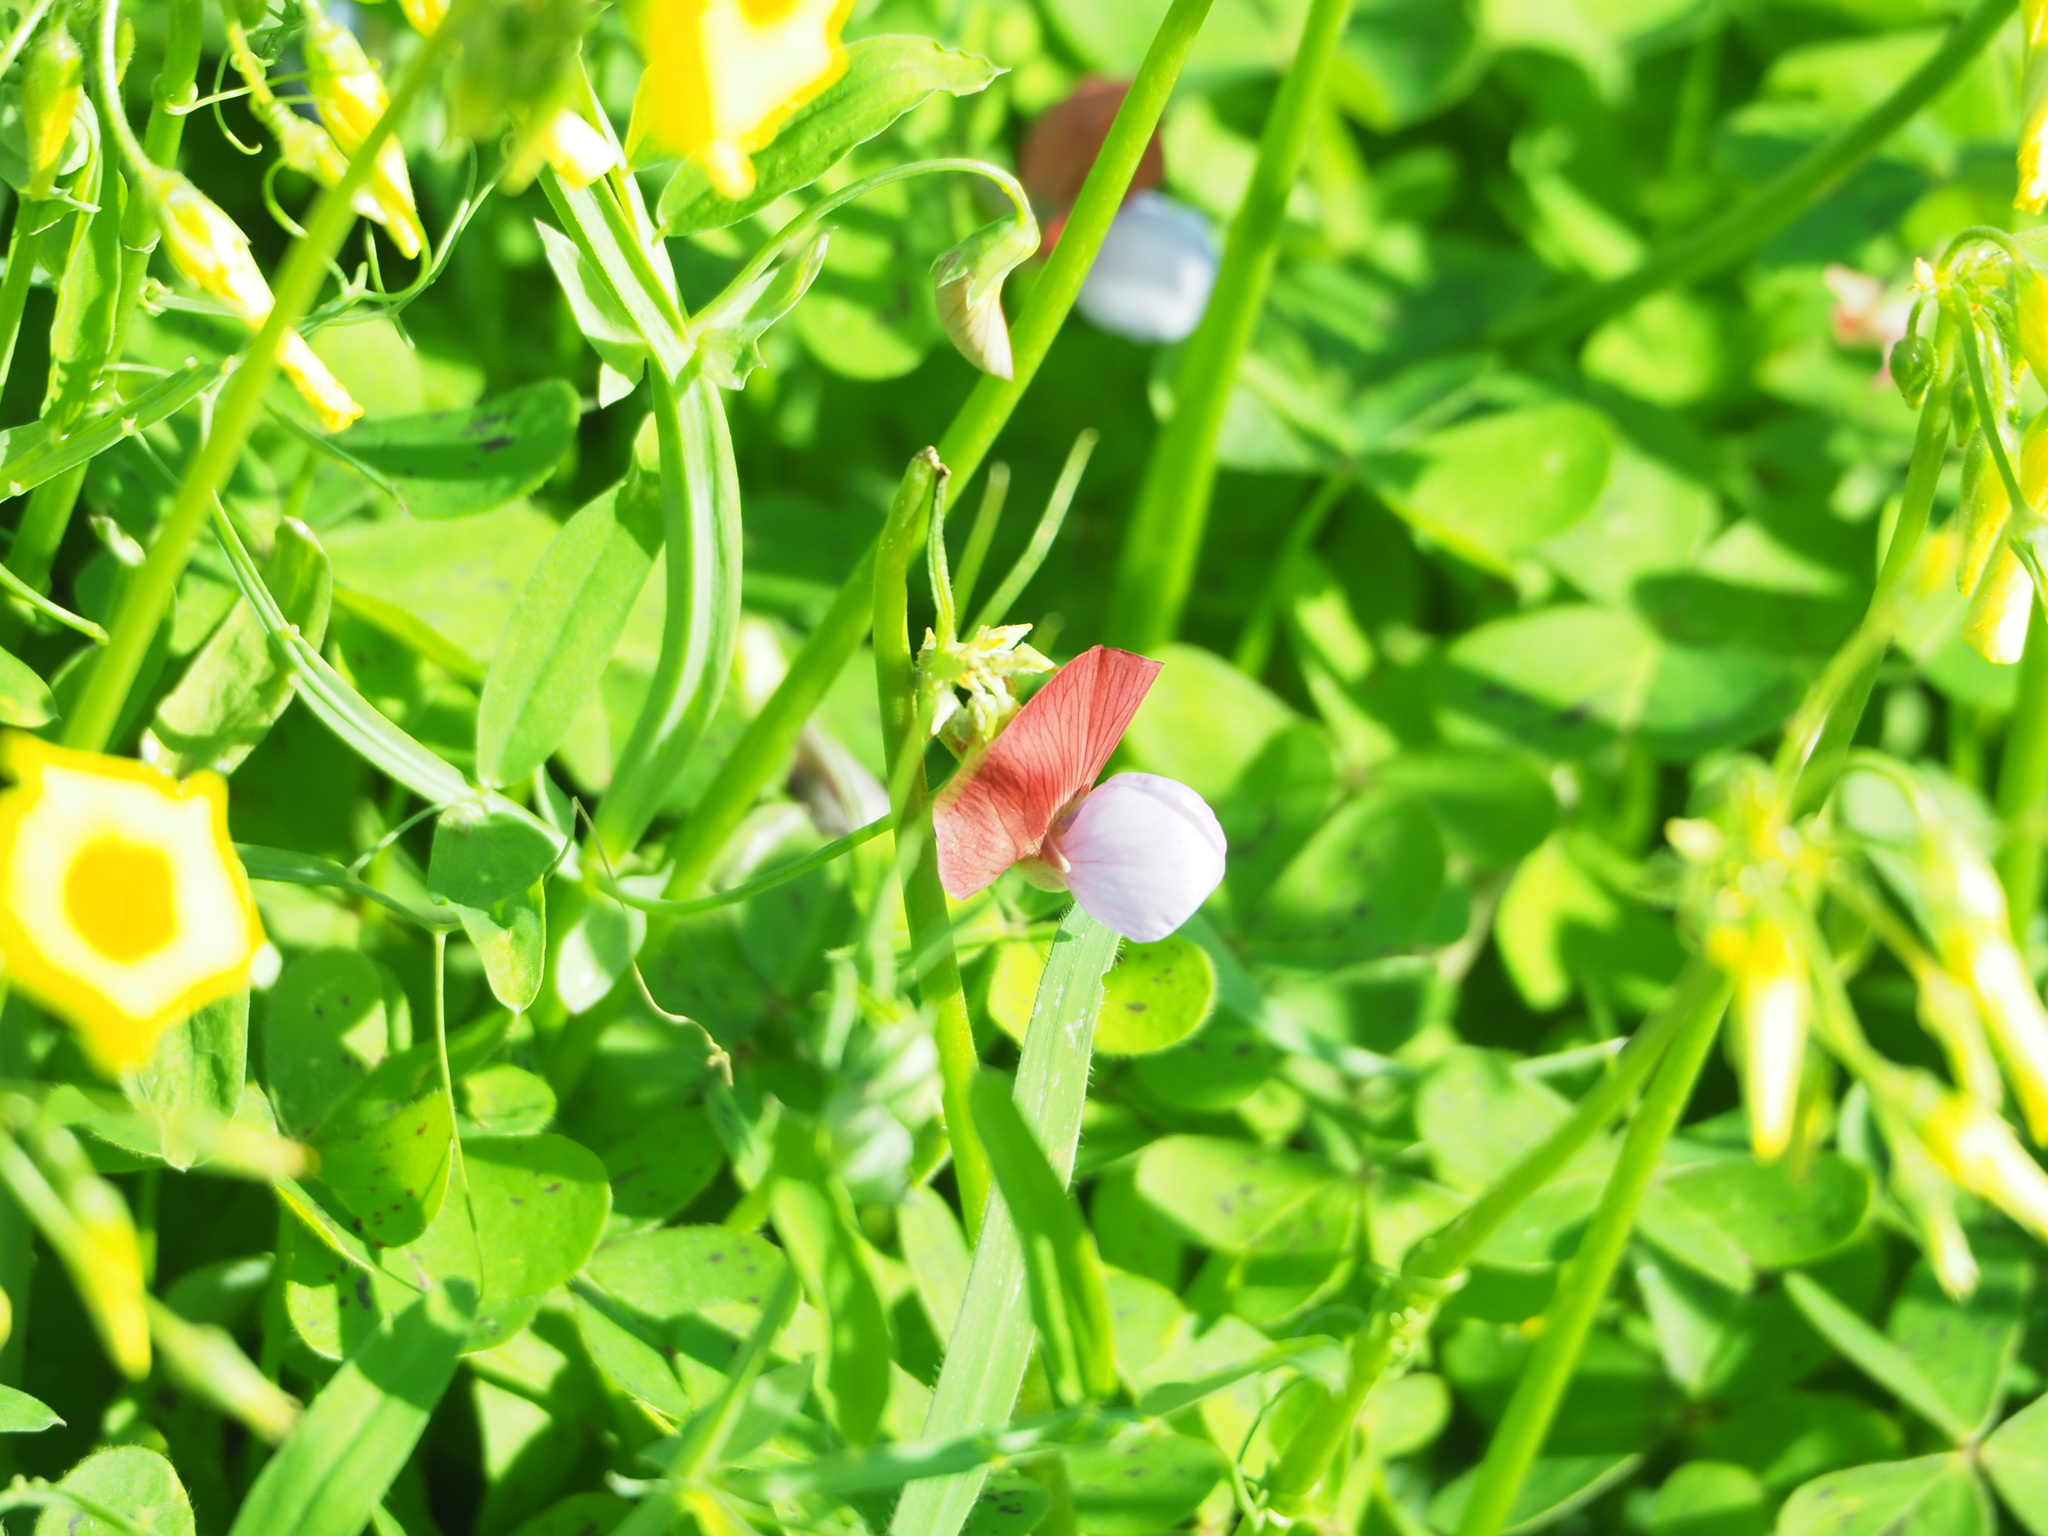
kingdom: Plantae
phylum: Tracheophyta
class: Magnoliopsida
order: Fabales
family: Fabaceae
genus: Lathyrus
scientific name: Lathyrus clymenum
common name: Spanish vetchling
